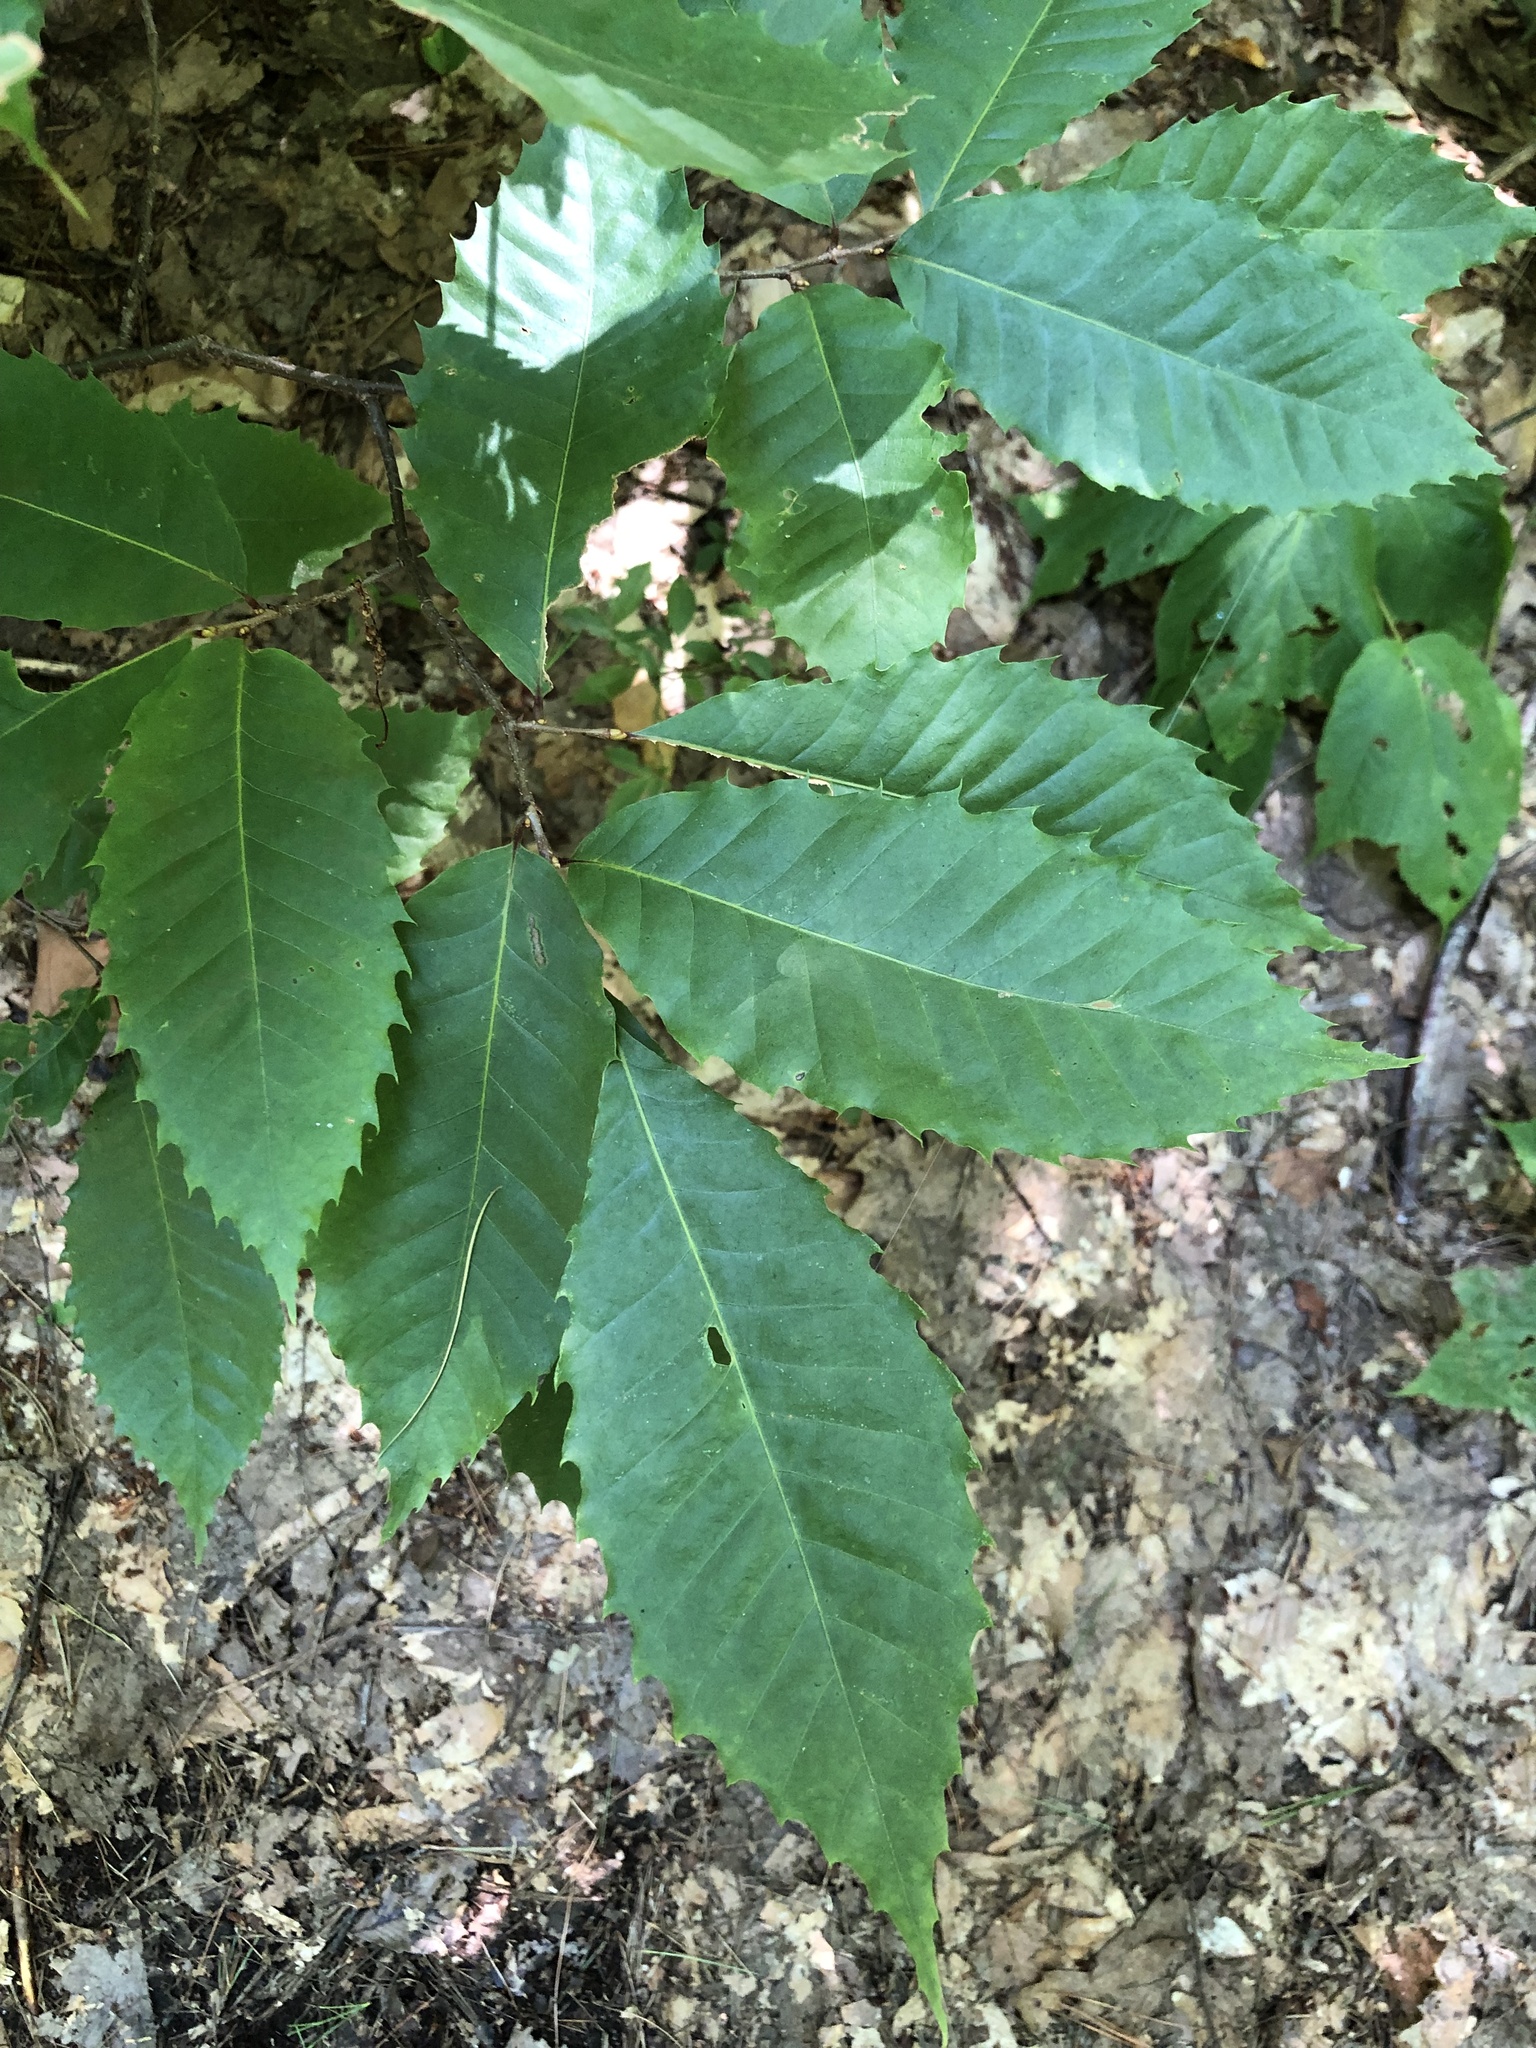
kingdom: Plantae
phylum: Tracheophyta
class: Magnoliopsida
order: Fagales
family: Fagaceae
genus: Castanea
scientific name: Castanea dentata
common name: American chestnut
